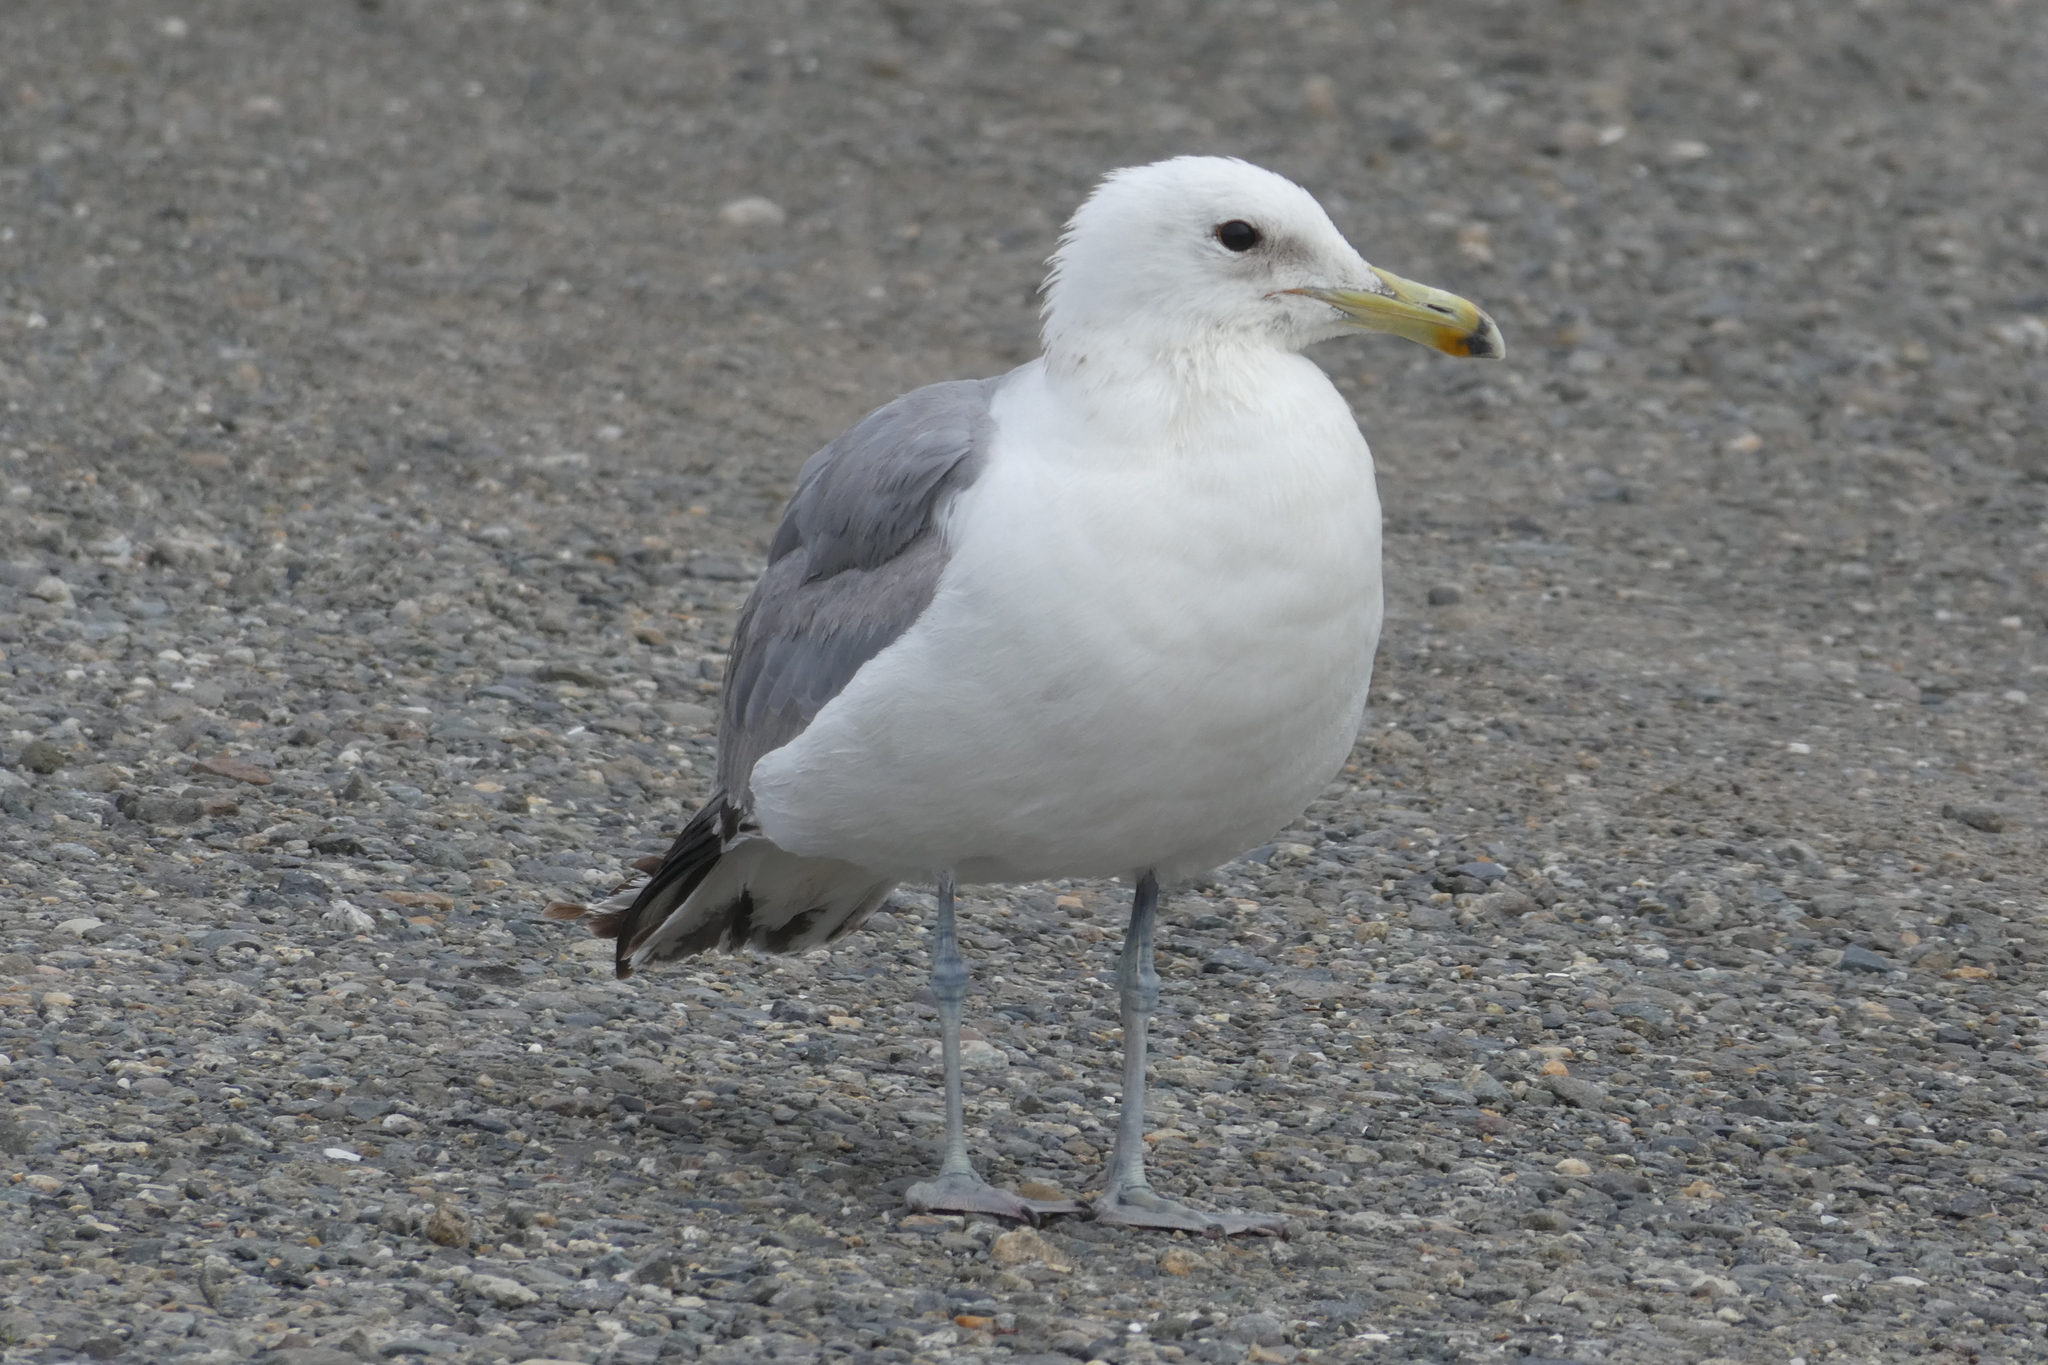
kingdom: Animalia
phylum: Chordata
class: Aves
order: Charadriiformes
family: Laridae
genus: Larus
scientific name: Larus californicus
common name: California gull
